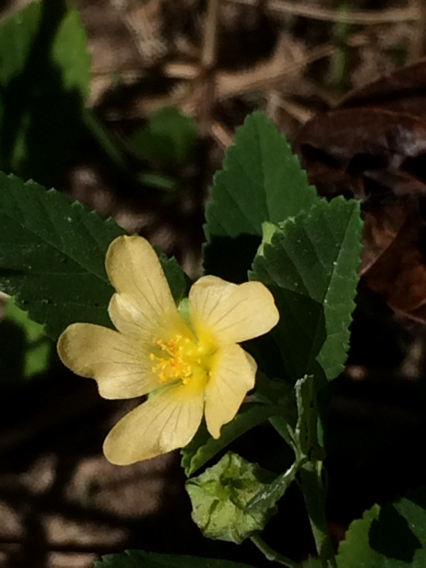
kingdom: Plantae
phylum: Tracheophyta
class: Magnoliopsida
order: Malvales
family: Malvaceae
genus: Sida
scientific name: Sida rhombifolia
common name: Queensland-hemp
